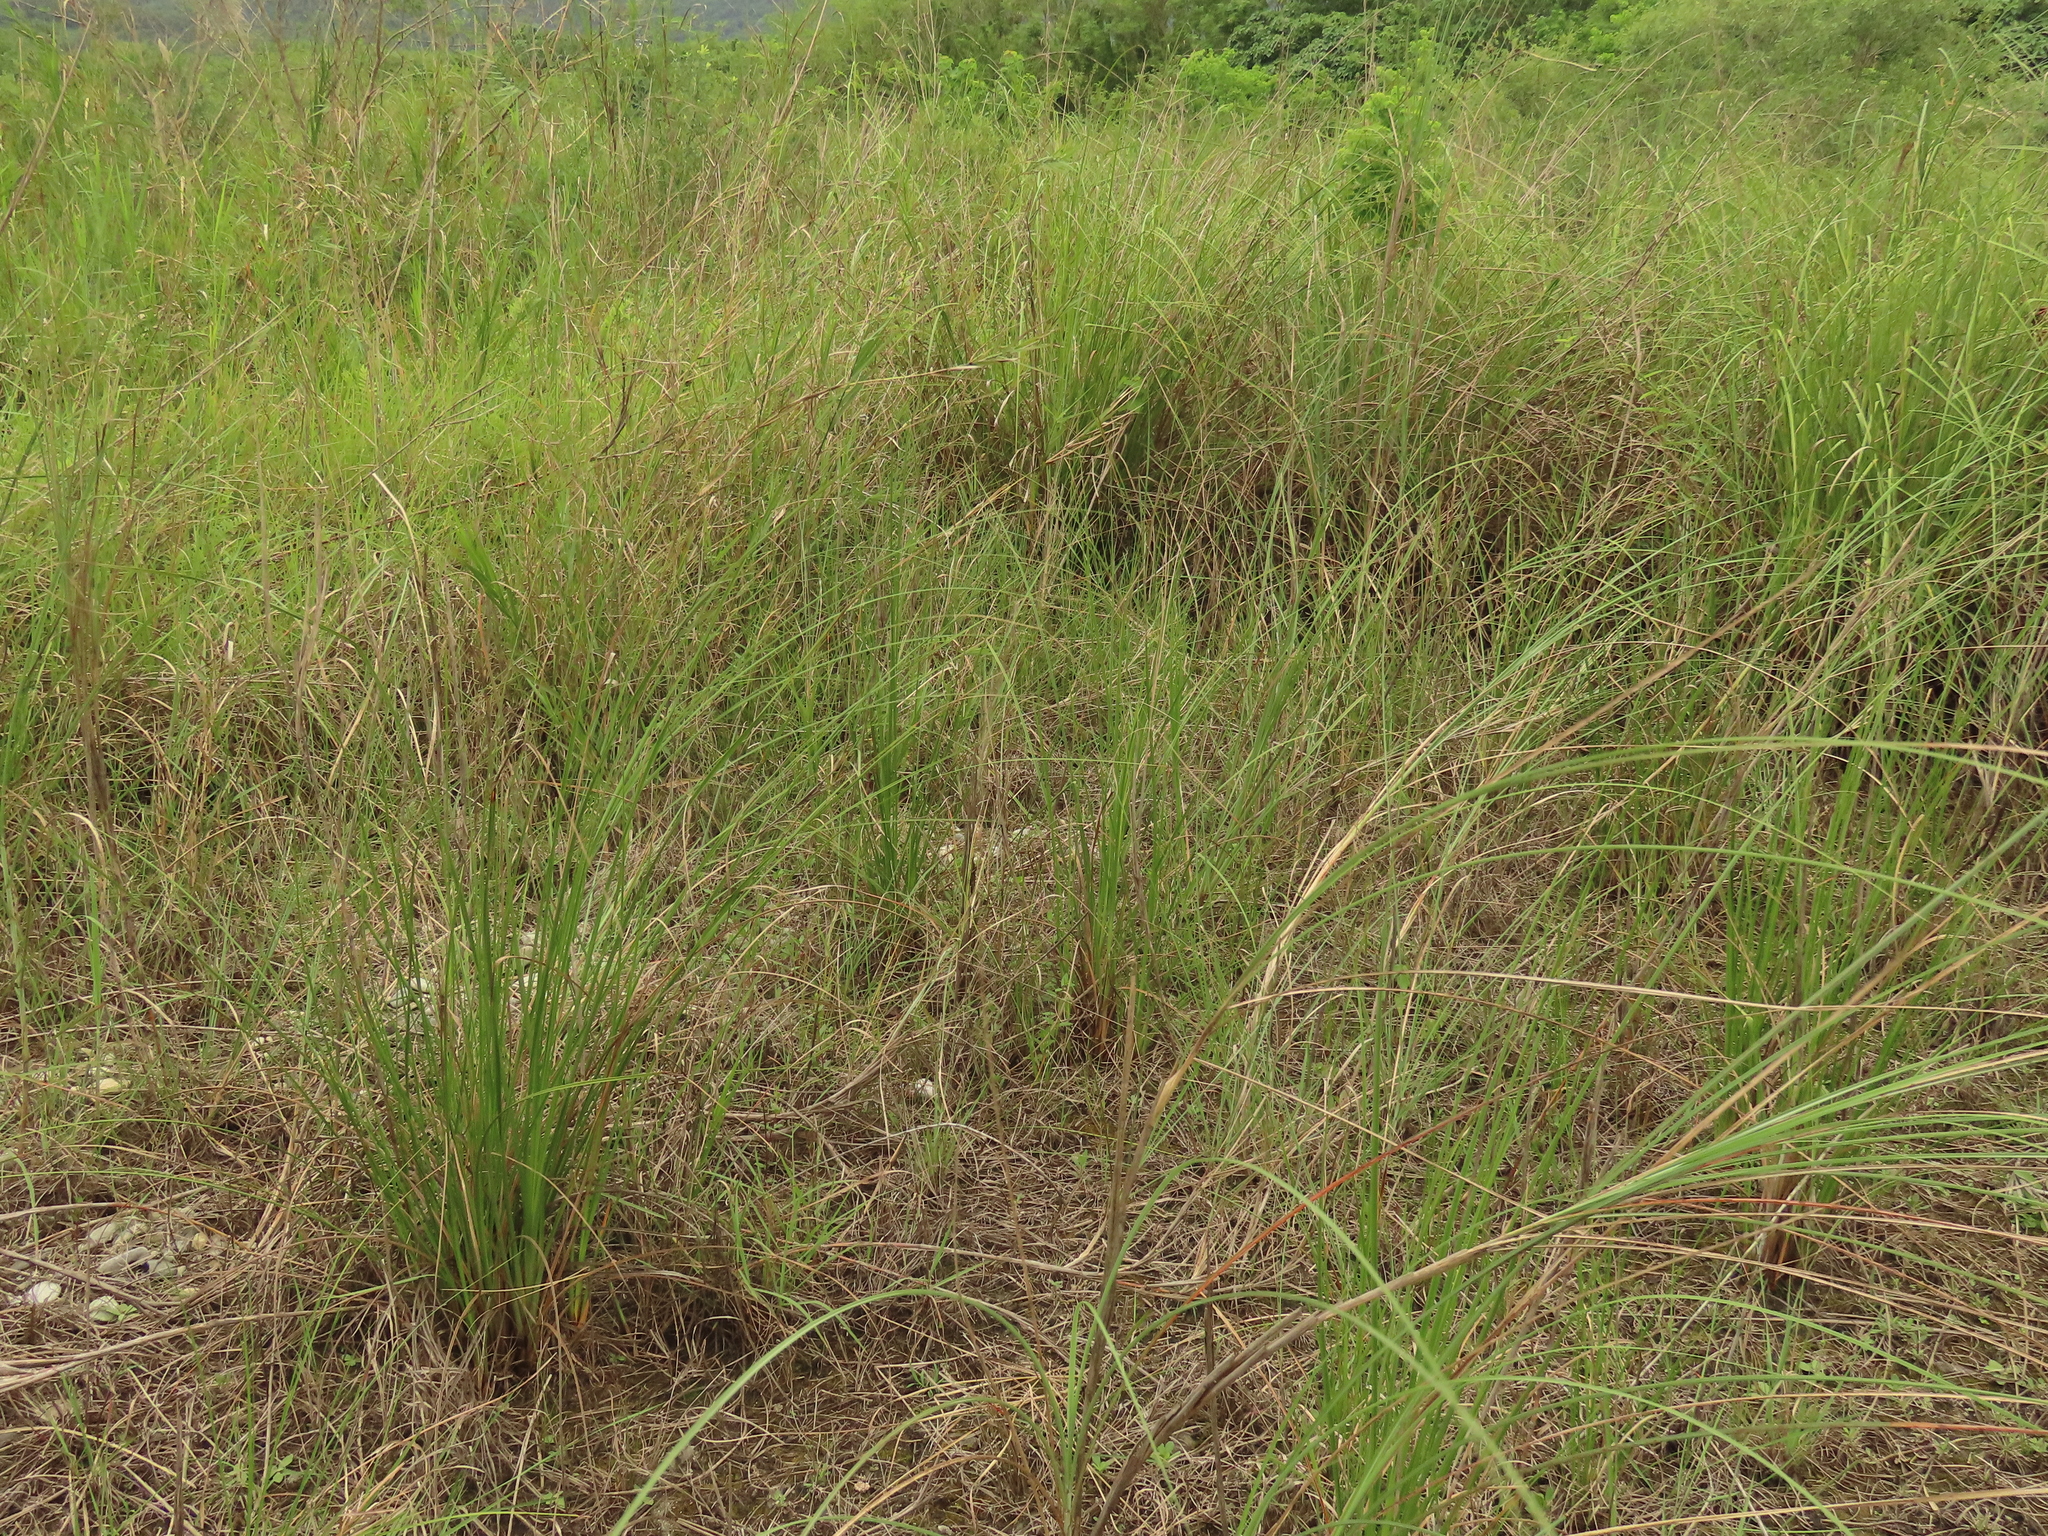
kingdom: Plantae
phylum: Tracheophyta
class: Liliopsida
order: Poales
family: Cyperaceae
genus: Cladium
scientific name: Cladium mariscus
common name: Great fen-sedge
